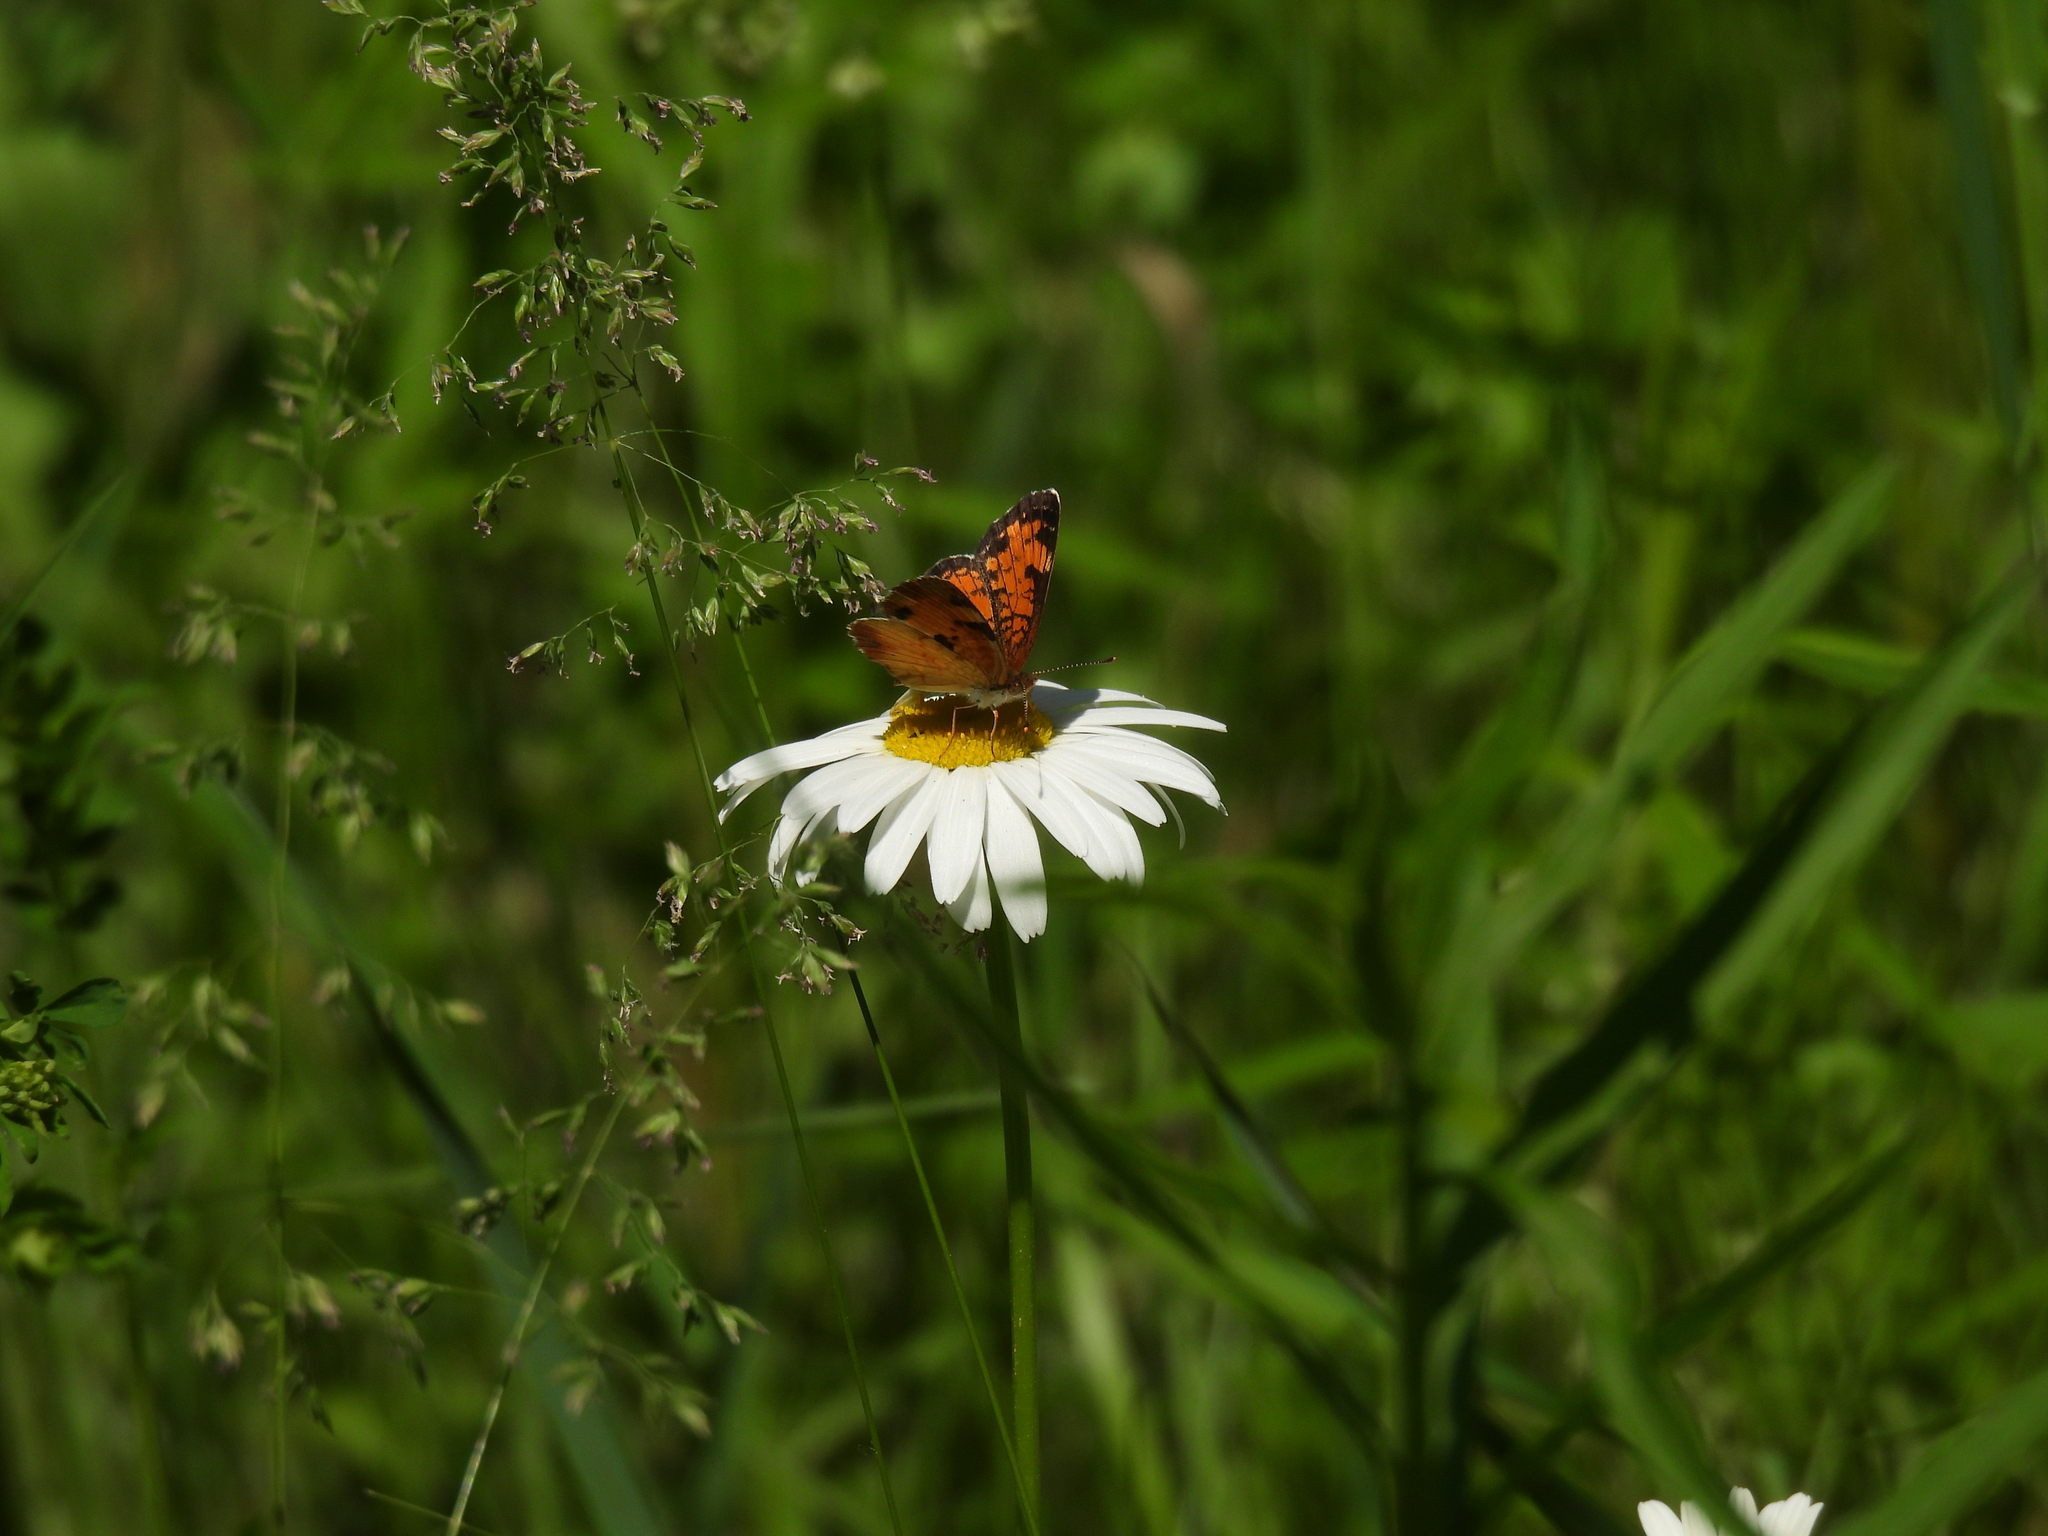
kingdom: Animalia
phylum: Arthropoda
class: Insecta
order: Lepidoptera
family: Nymphalidae
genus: Phyciodes
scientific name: Phyciodes tharos
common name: Pearl crescent
